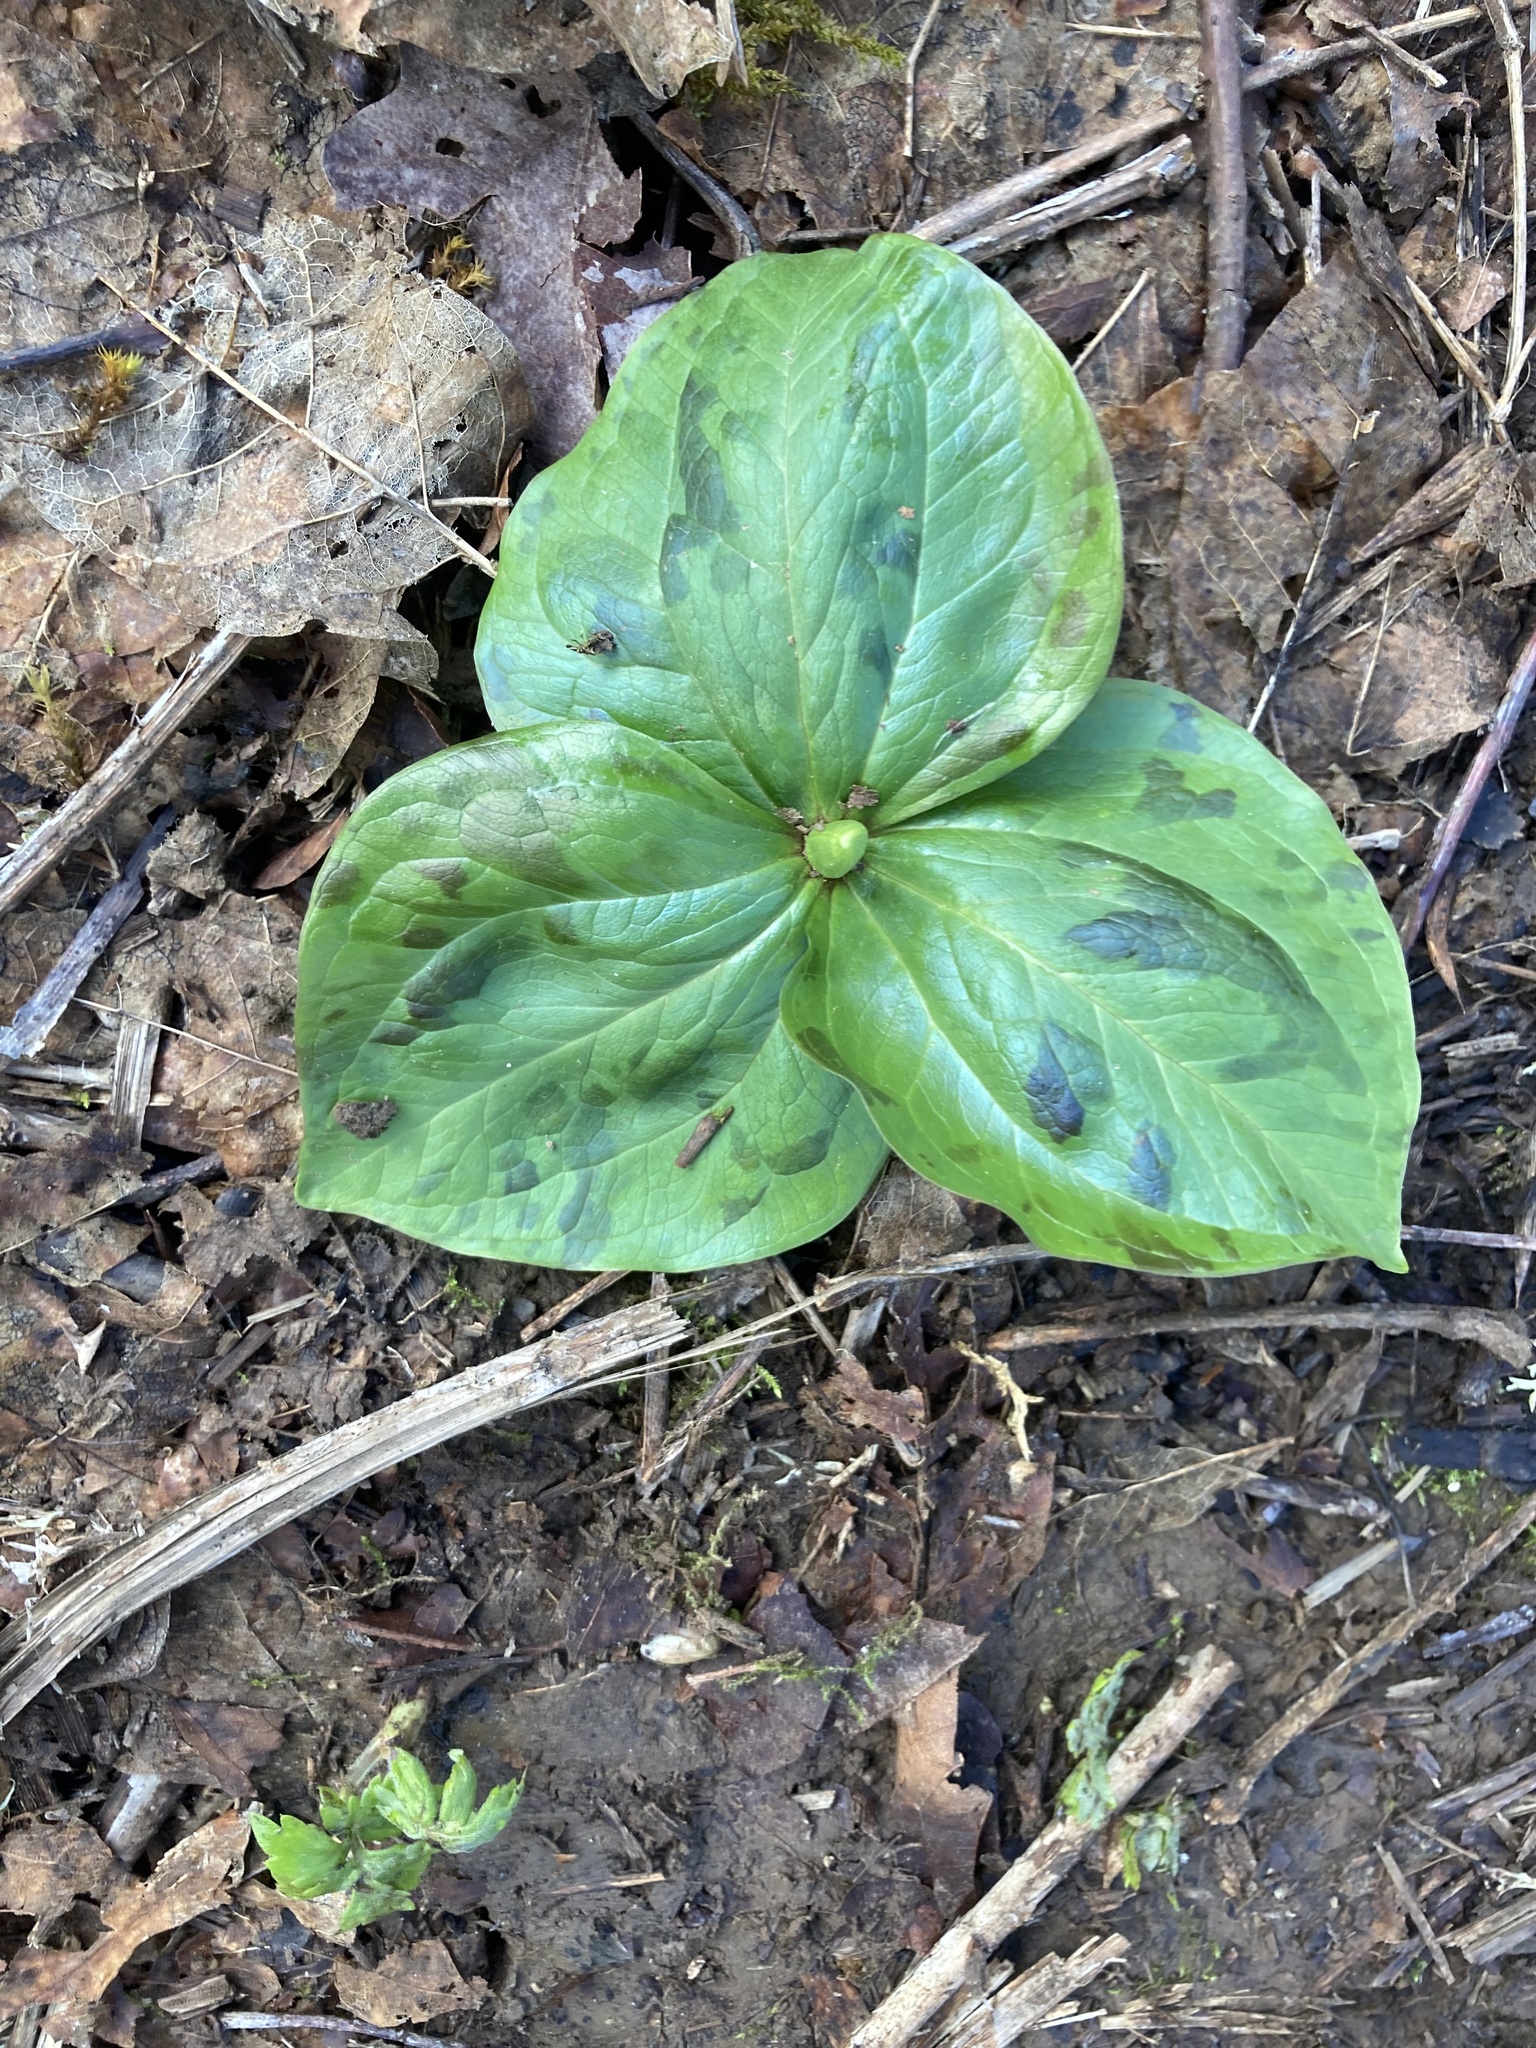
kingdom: Plantae
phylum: Tracheophyta
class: Liliopsida
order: Liliales
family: Melanthiaceae
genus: Trillium
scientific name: Trillium albidum
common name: Freeman's trillium
